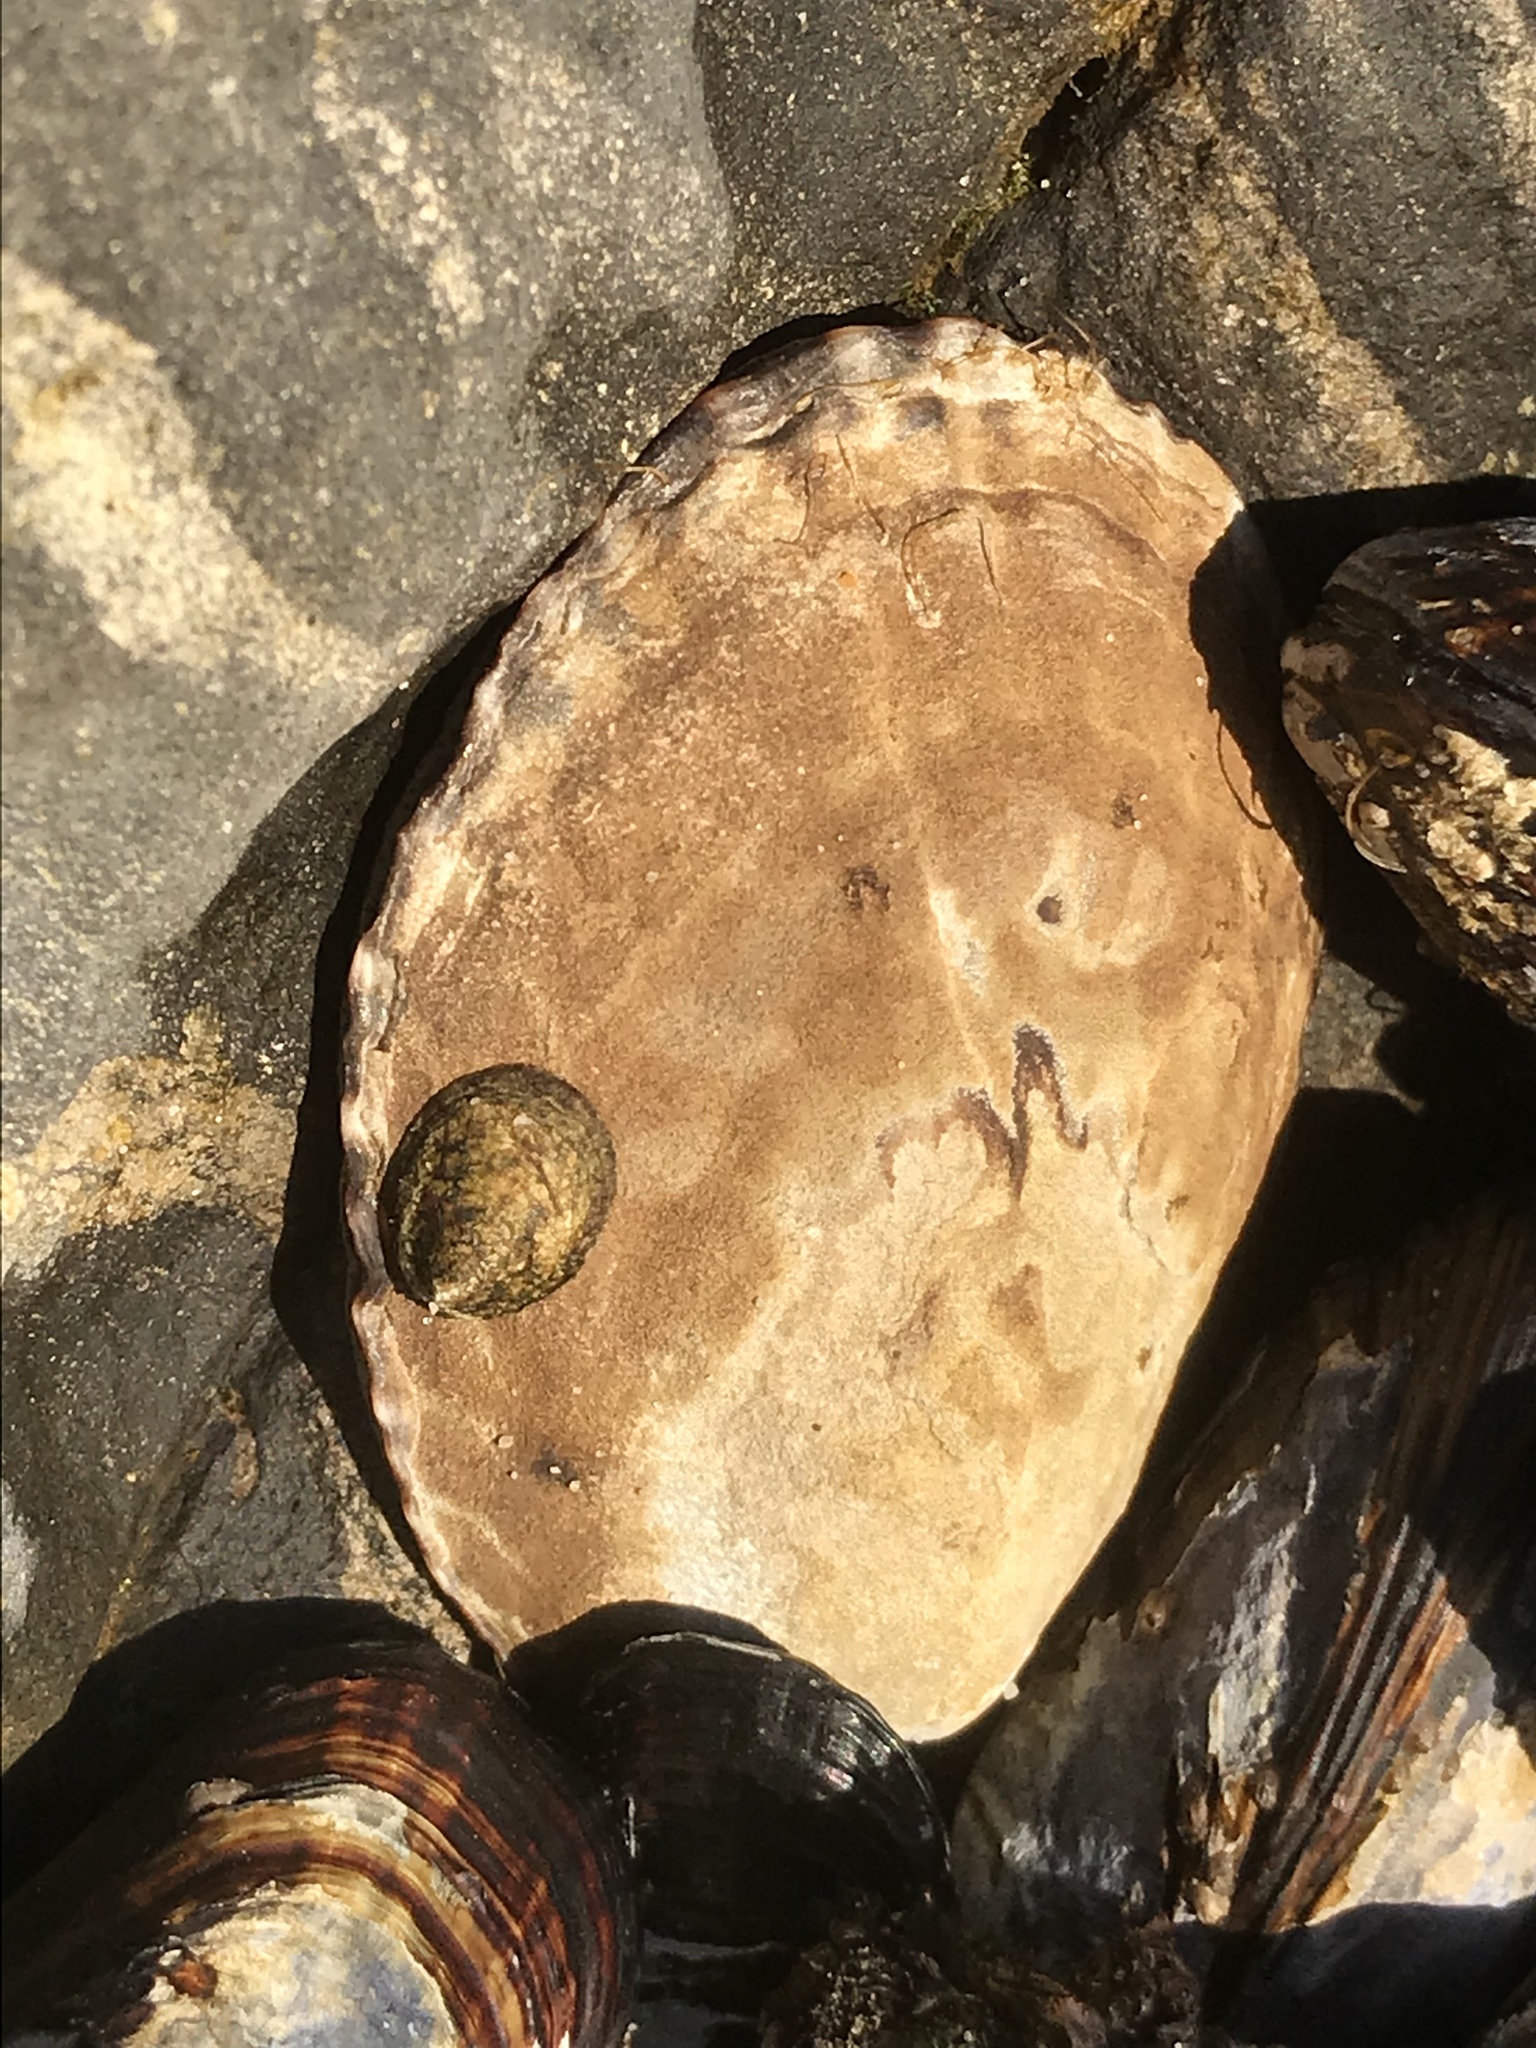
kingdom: Animalia
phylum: Mollusca
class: Gastropoda
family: Lottiidae
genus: Lottia
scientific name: Lottia gigantea
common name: Owl limpet
